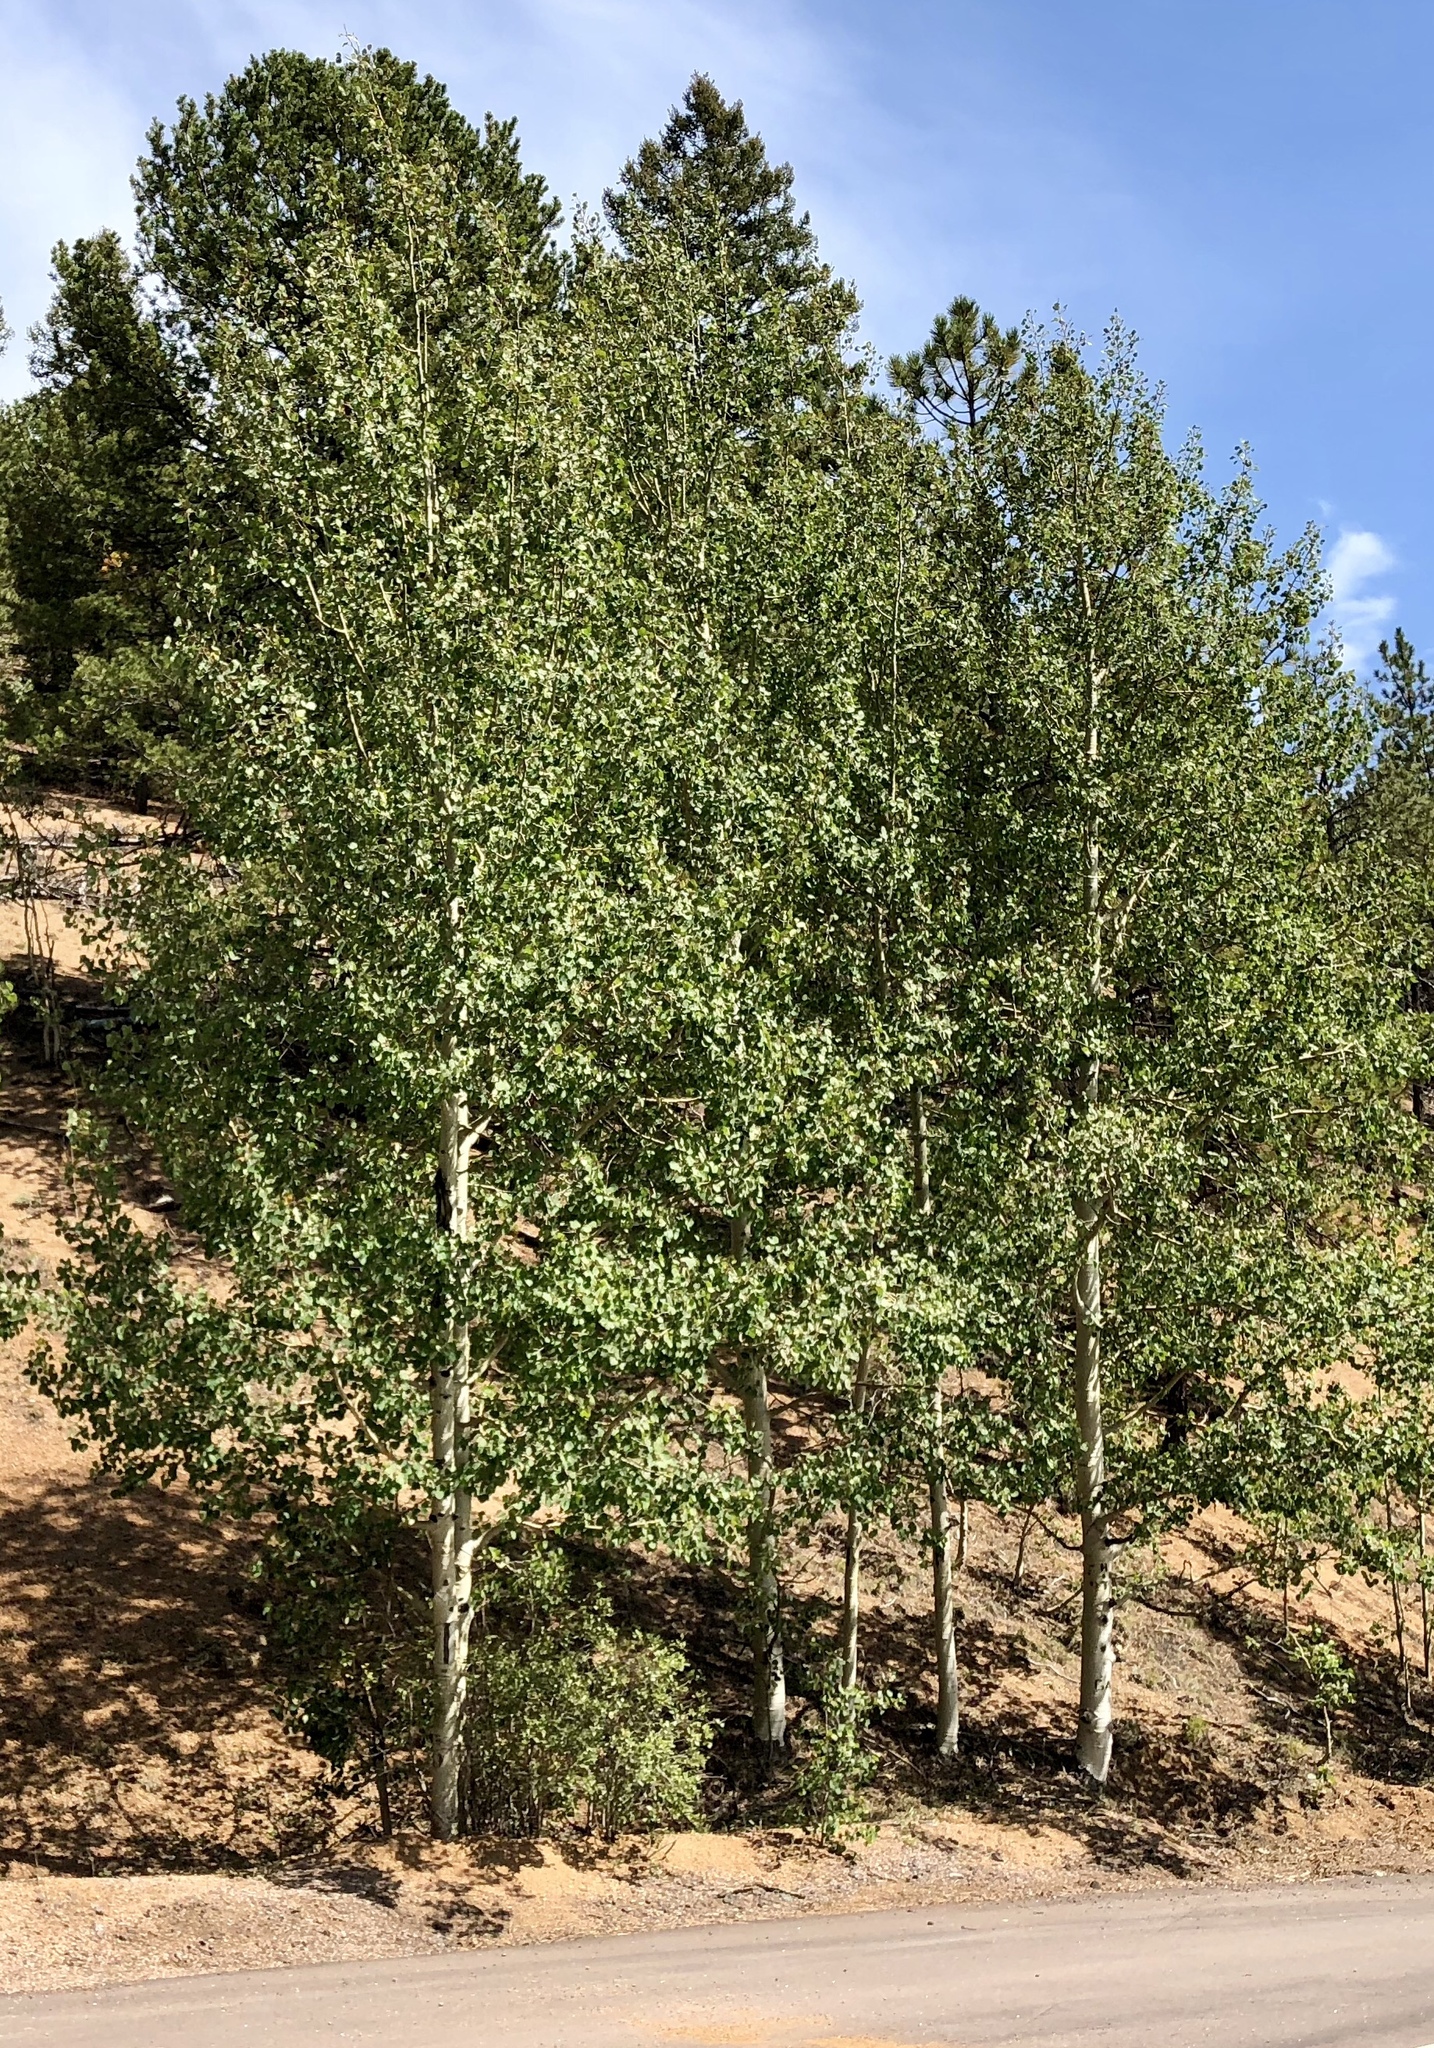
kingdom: Plantae
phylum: Tracheophyta
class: Magnoliopsida
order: Malpighiales
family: Salicaceae
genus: Populus
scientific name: Populus tremuloides
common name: Quaking aspen
